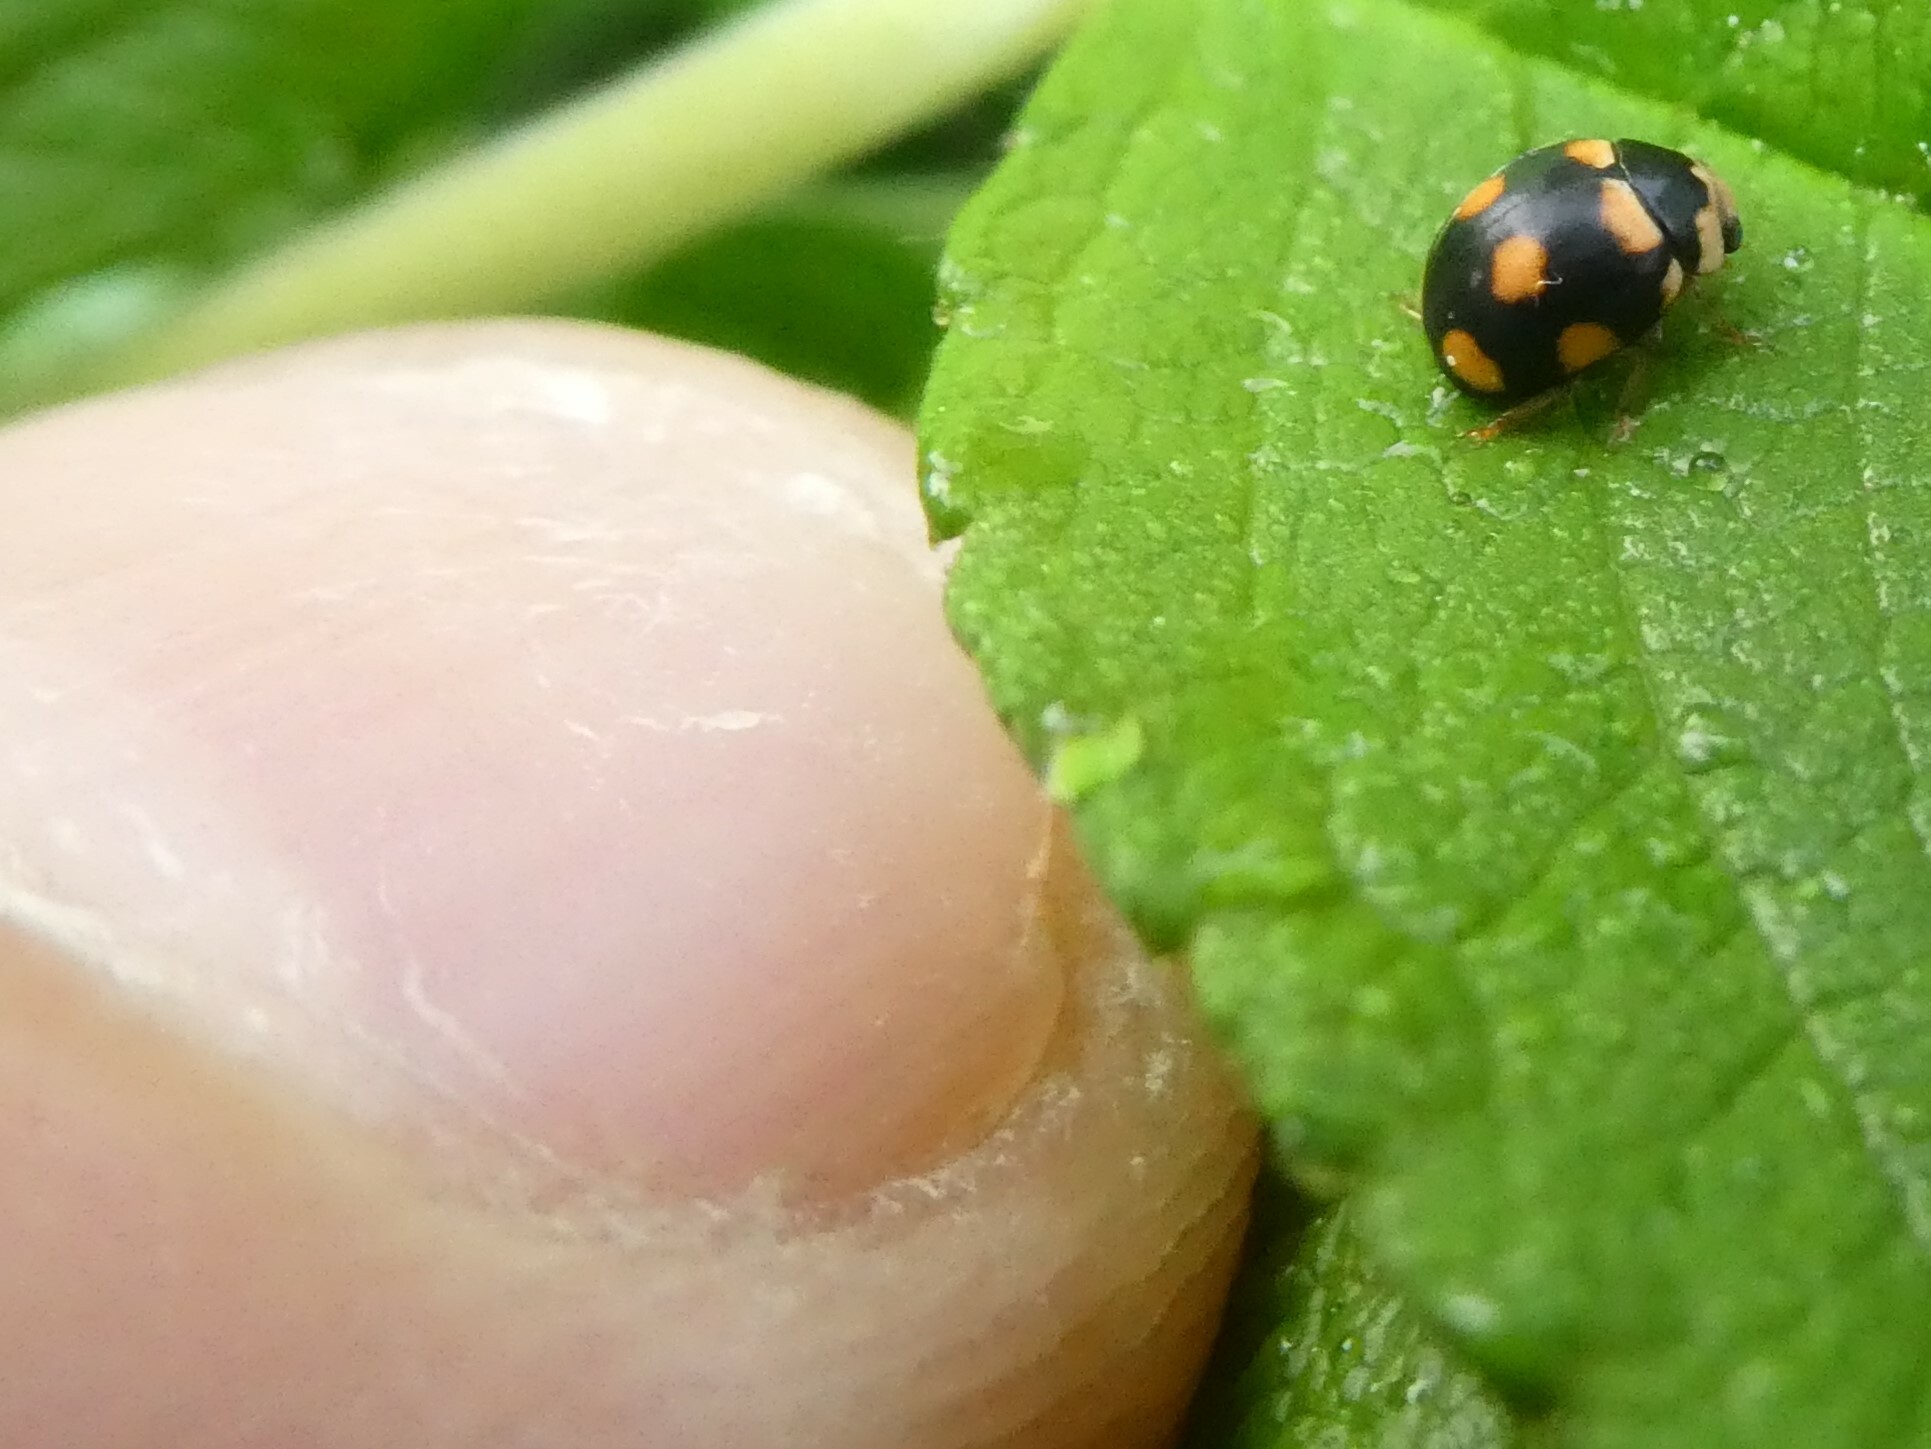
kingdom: Animalia
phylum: Arthropoda
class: Insecta
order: Coleoptera
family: Coccinellidae
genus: Brachiacantha
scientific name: Brachiacantha ursina
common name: Ursine spurleg lady beetle
